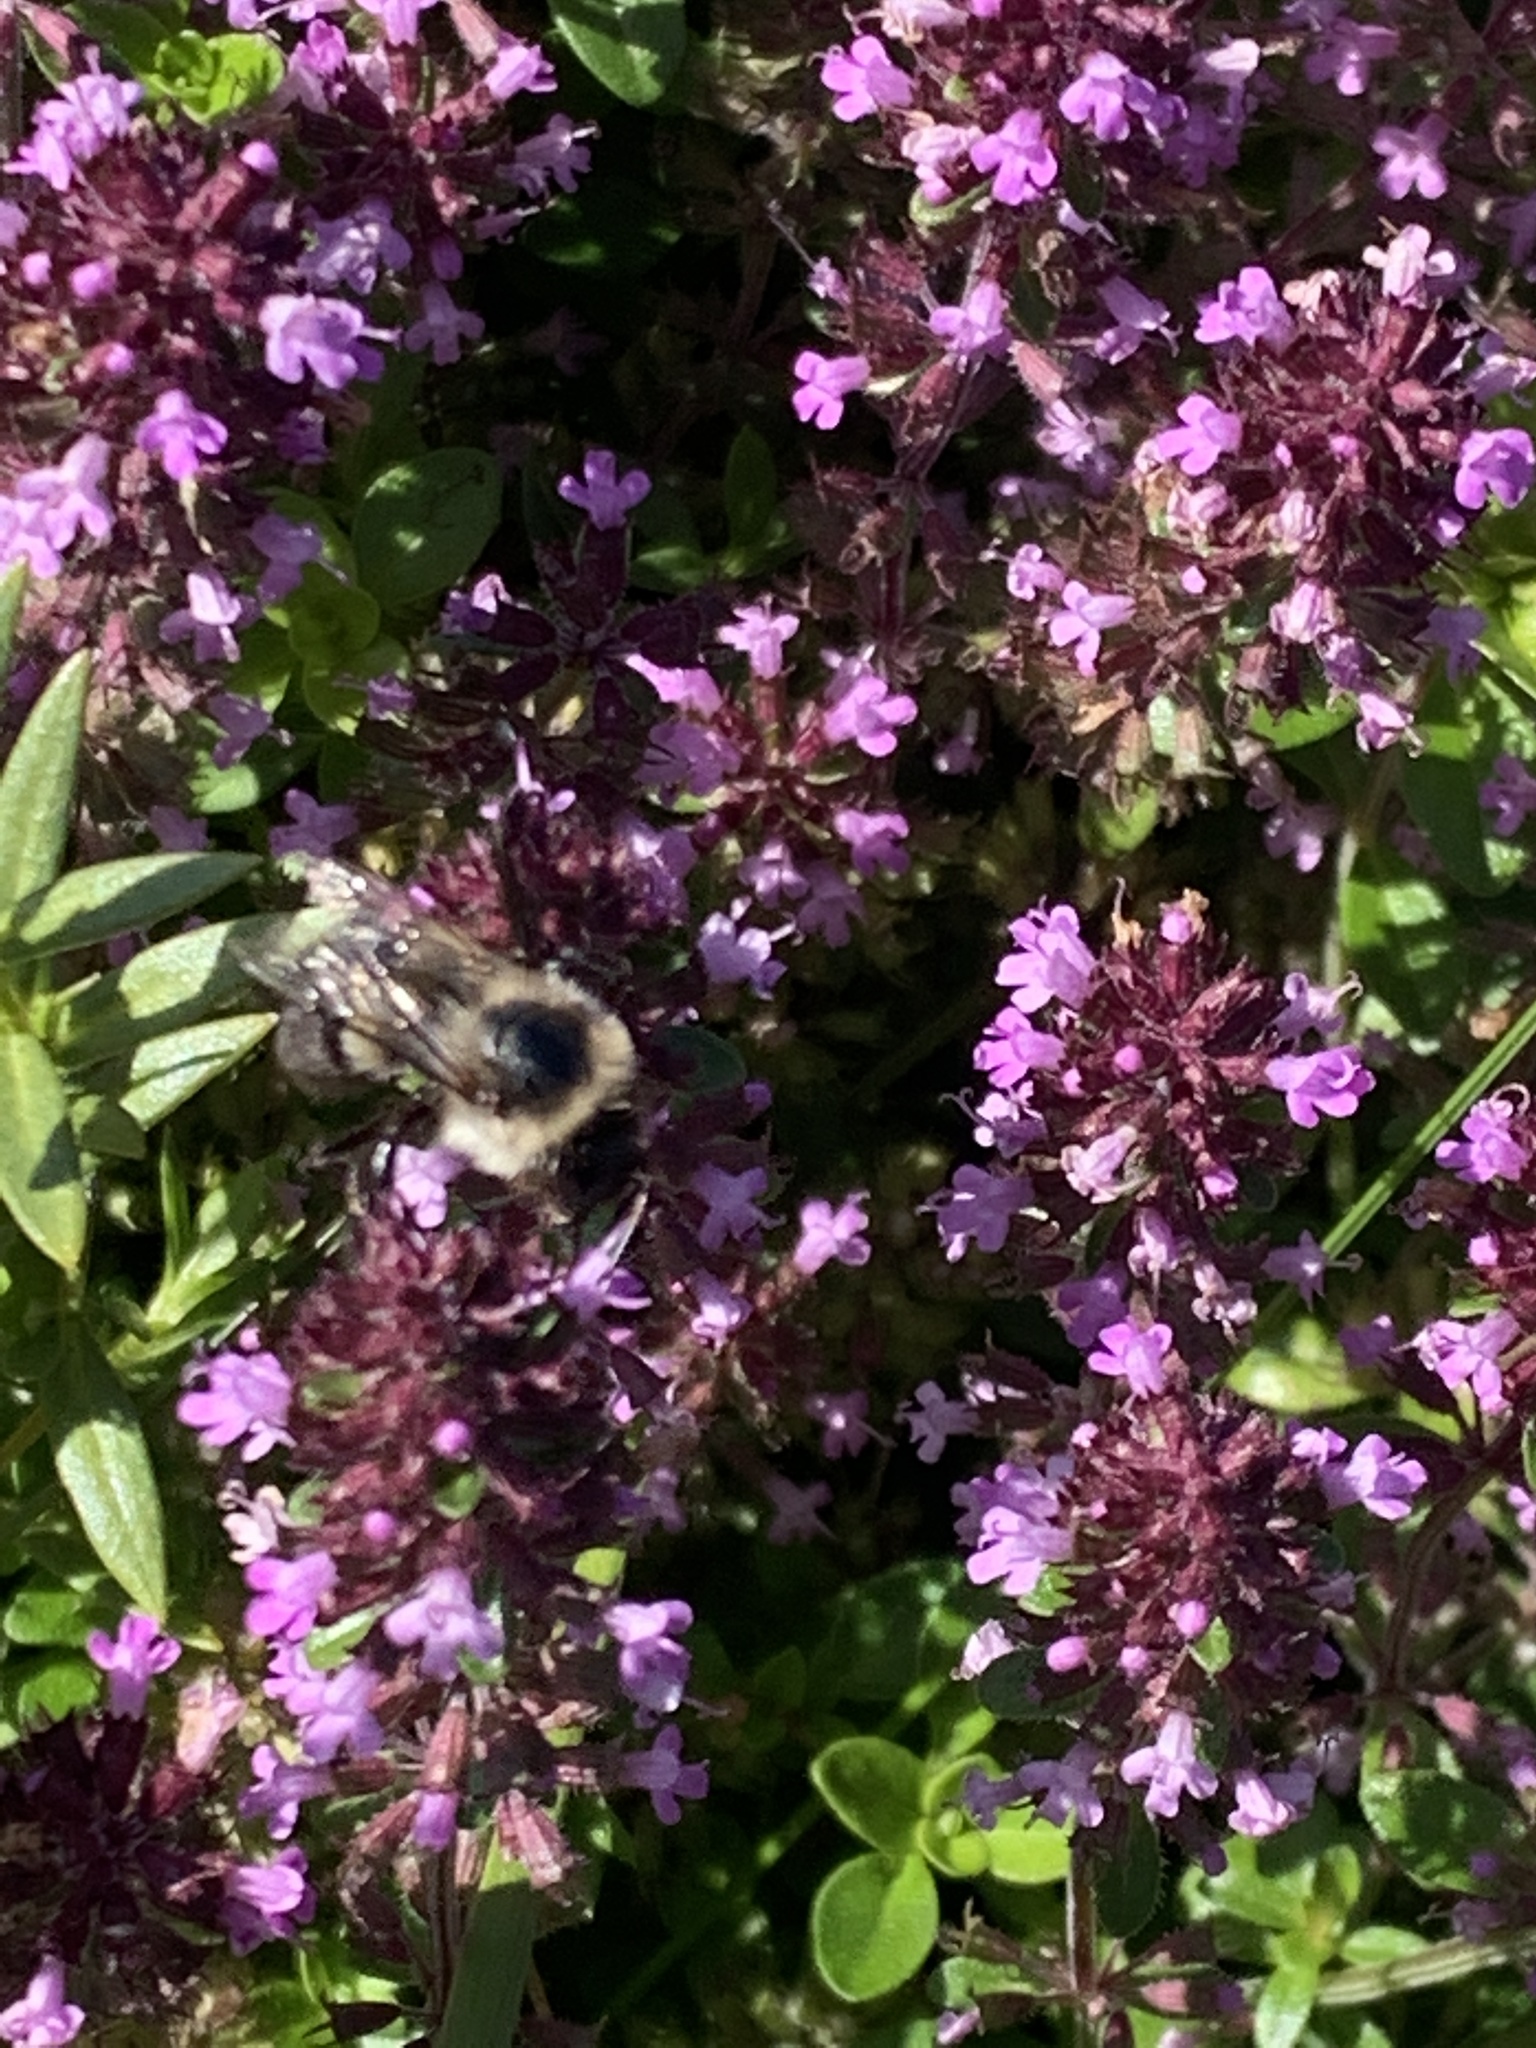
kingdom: Animalia
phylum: Arthropoda
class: Insecta
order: Hymenoptera
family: Apidae
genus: Bombus
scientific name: Bombus impatiens
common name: Common eastern bumble bee
